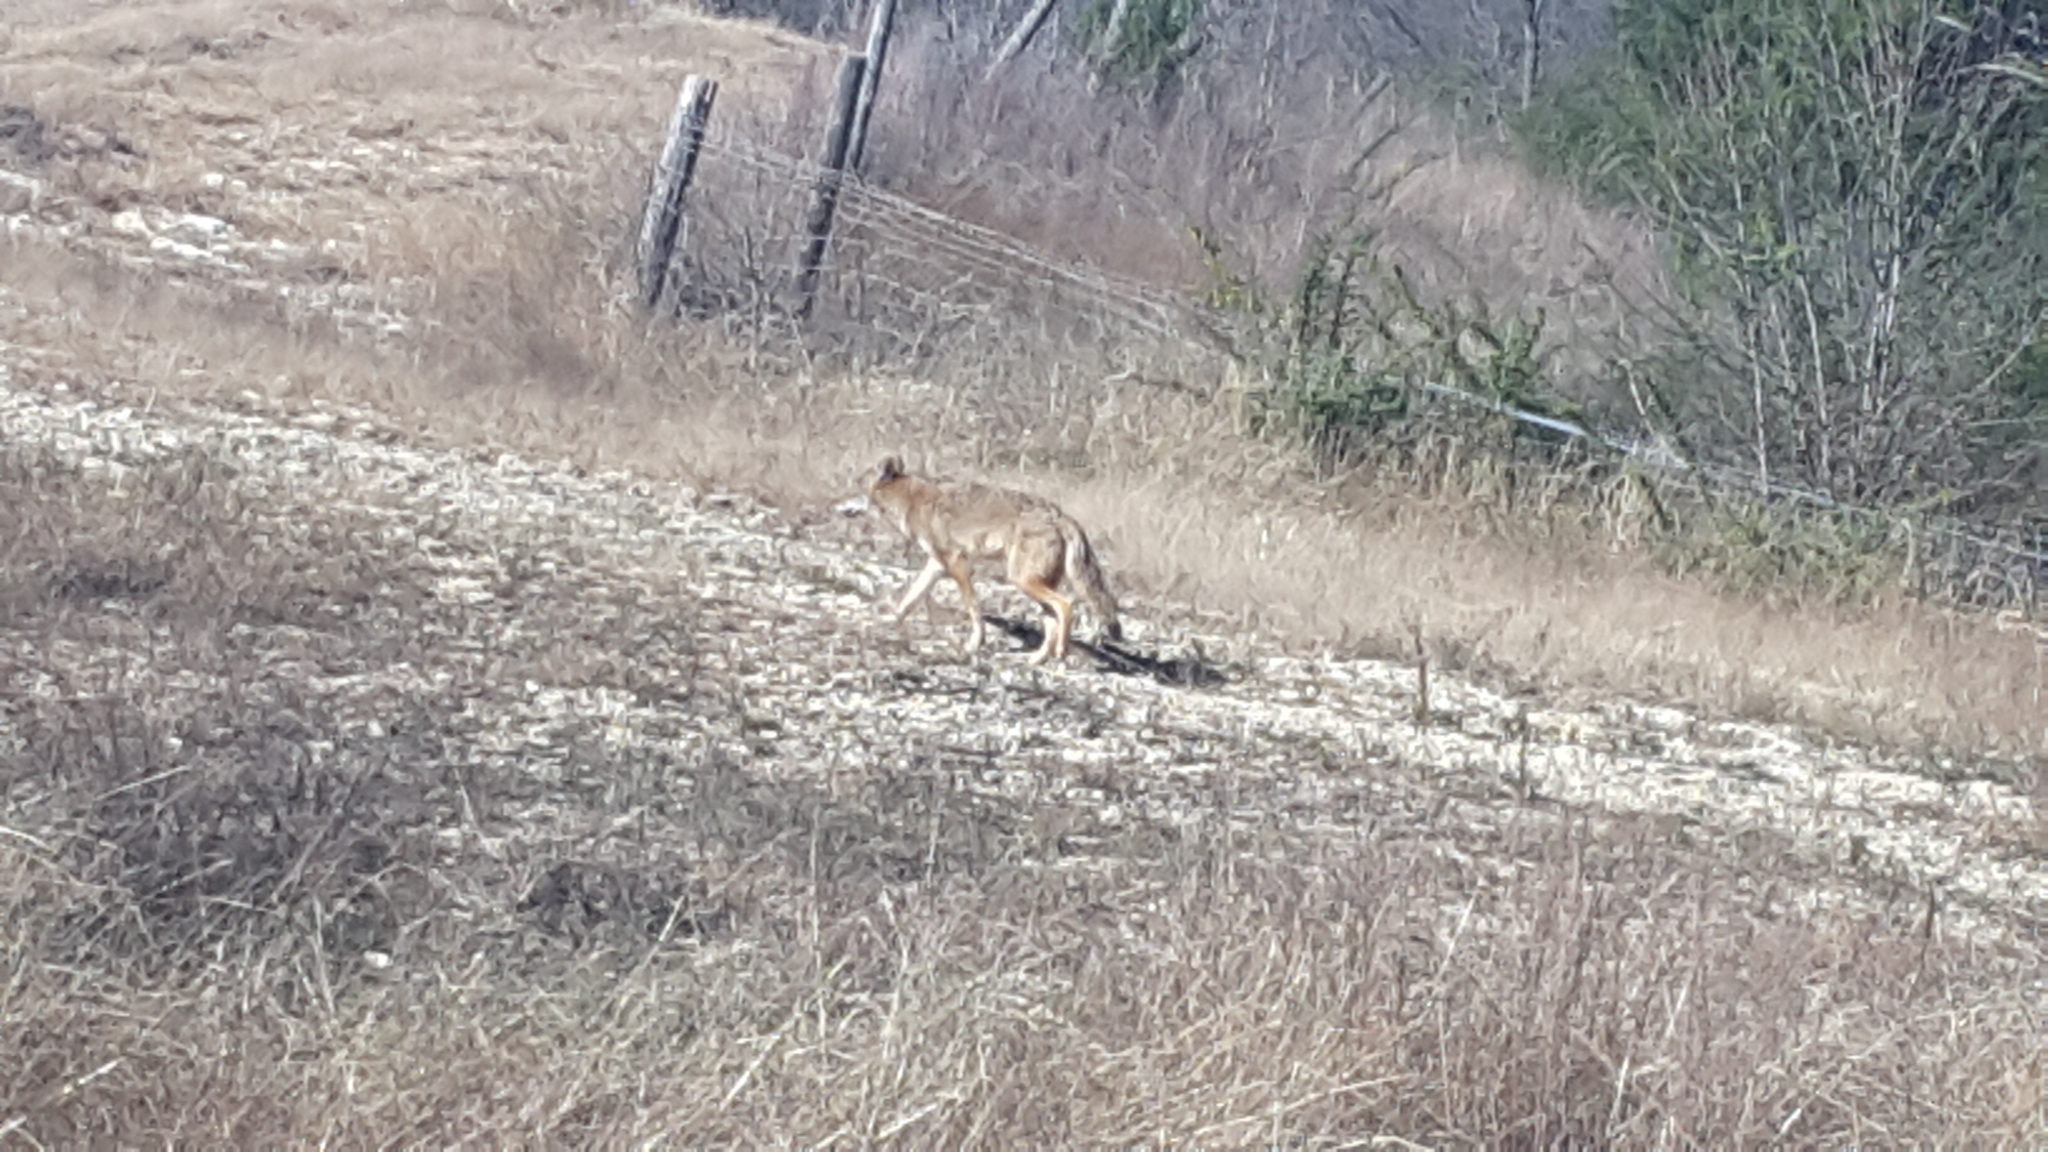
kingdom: Animalia
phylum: Chordata
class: Mammalia
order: Carnivora
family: Canidae
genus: Canis
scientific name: Canis latrans
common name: Coyote
